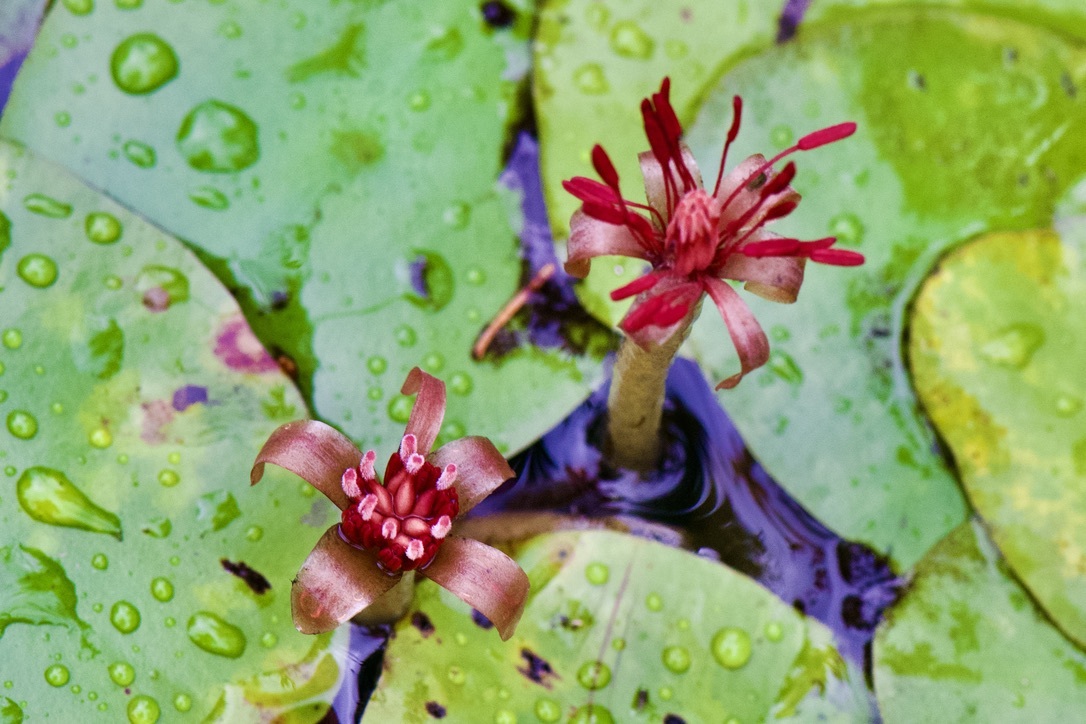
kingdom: Plantae
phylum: Tracheophyta
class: Magnoliopsida
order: Nymphaeales
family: Cabombaceae
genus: Brasenia
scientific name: Brasenia schreberi
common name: Water-shield
